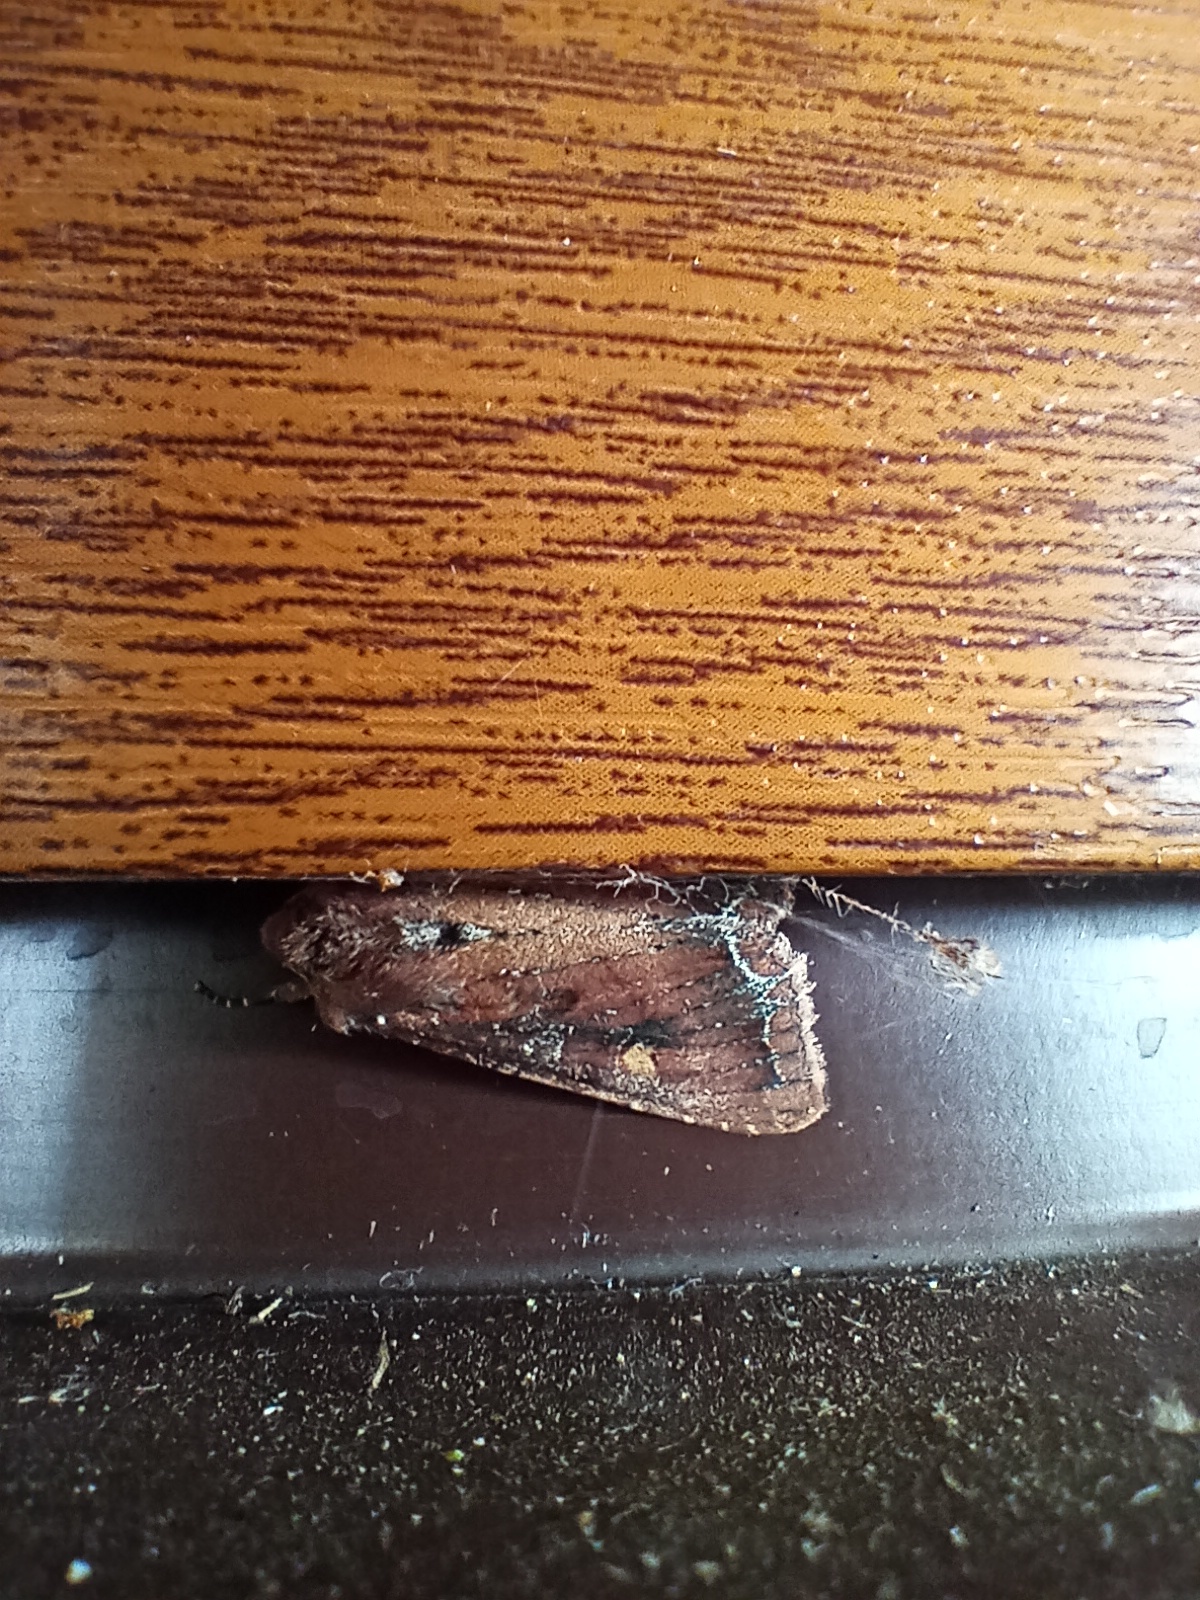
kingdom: Animalia
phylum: Arthropoda
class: Insecta
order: Lepidoptera
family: Noctuidae
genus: Lacanobia
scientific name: Lacanobia oleracea
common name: Bright-line brown-eye
